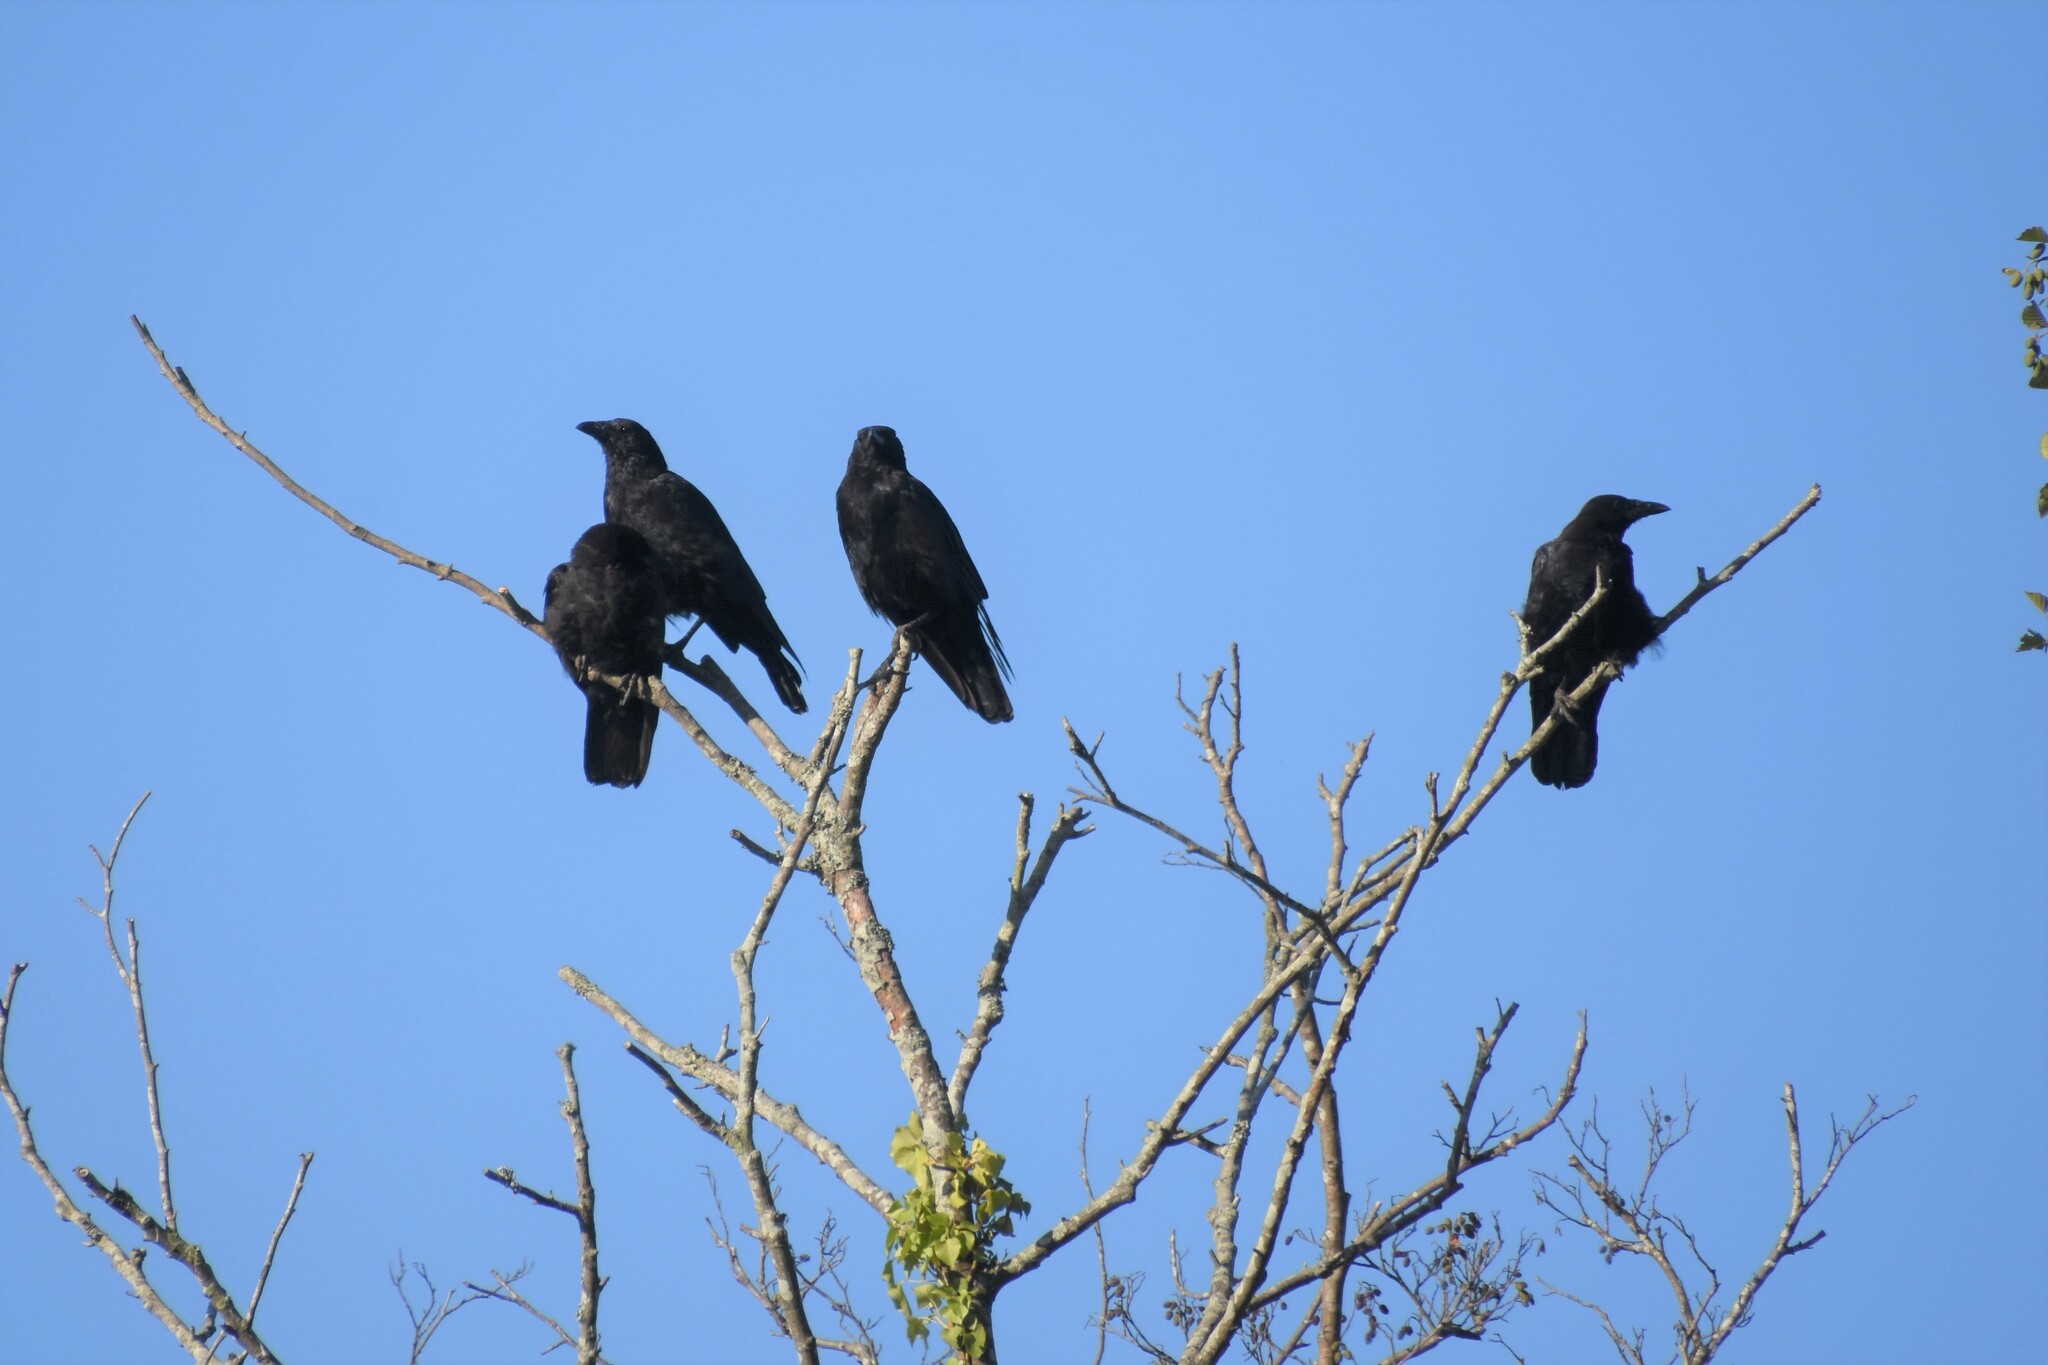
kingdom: Animalia
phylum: Chordata
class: Aves
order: Passeriformes
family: Corvidae
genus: Corvus
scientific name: Corvus corone
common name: Carrion crow
